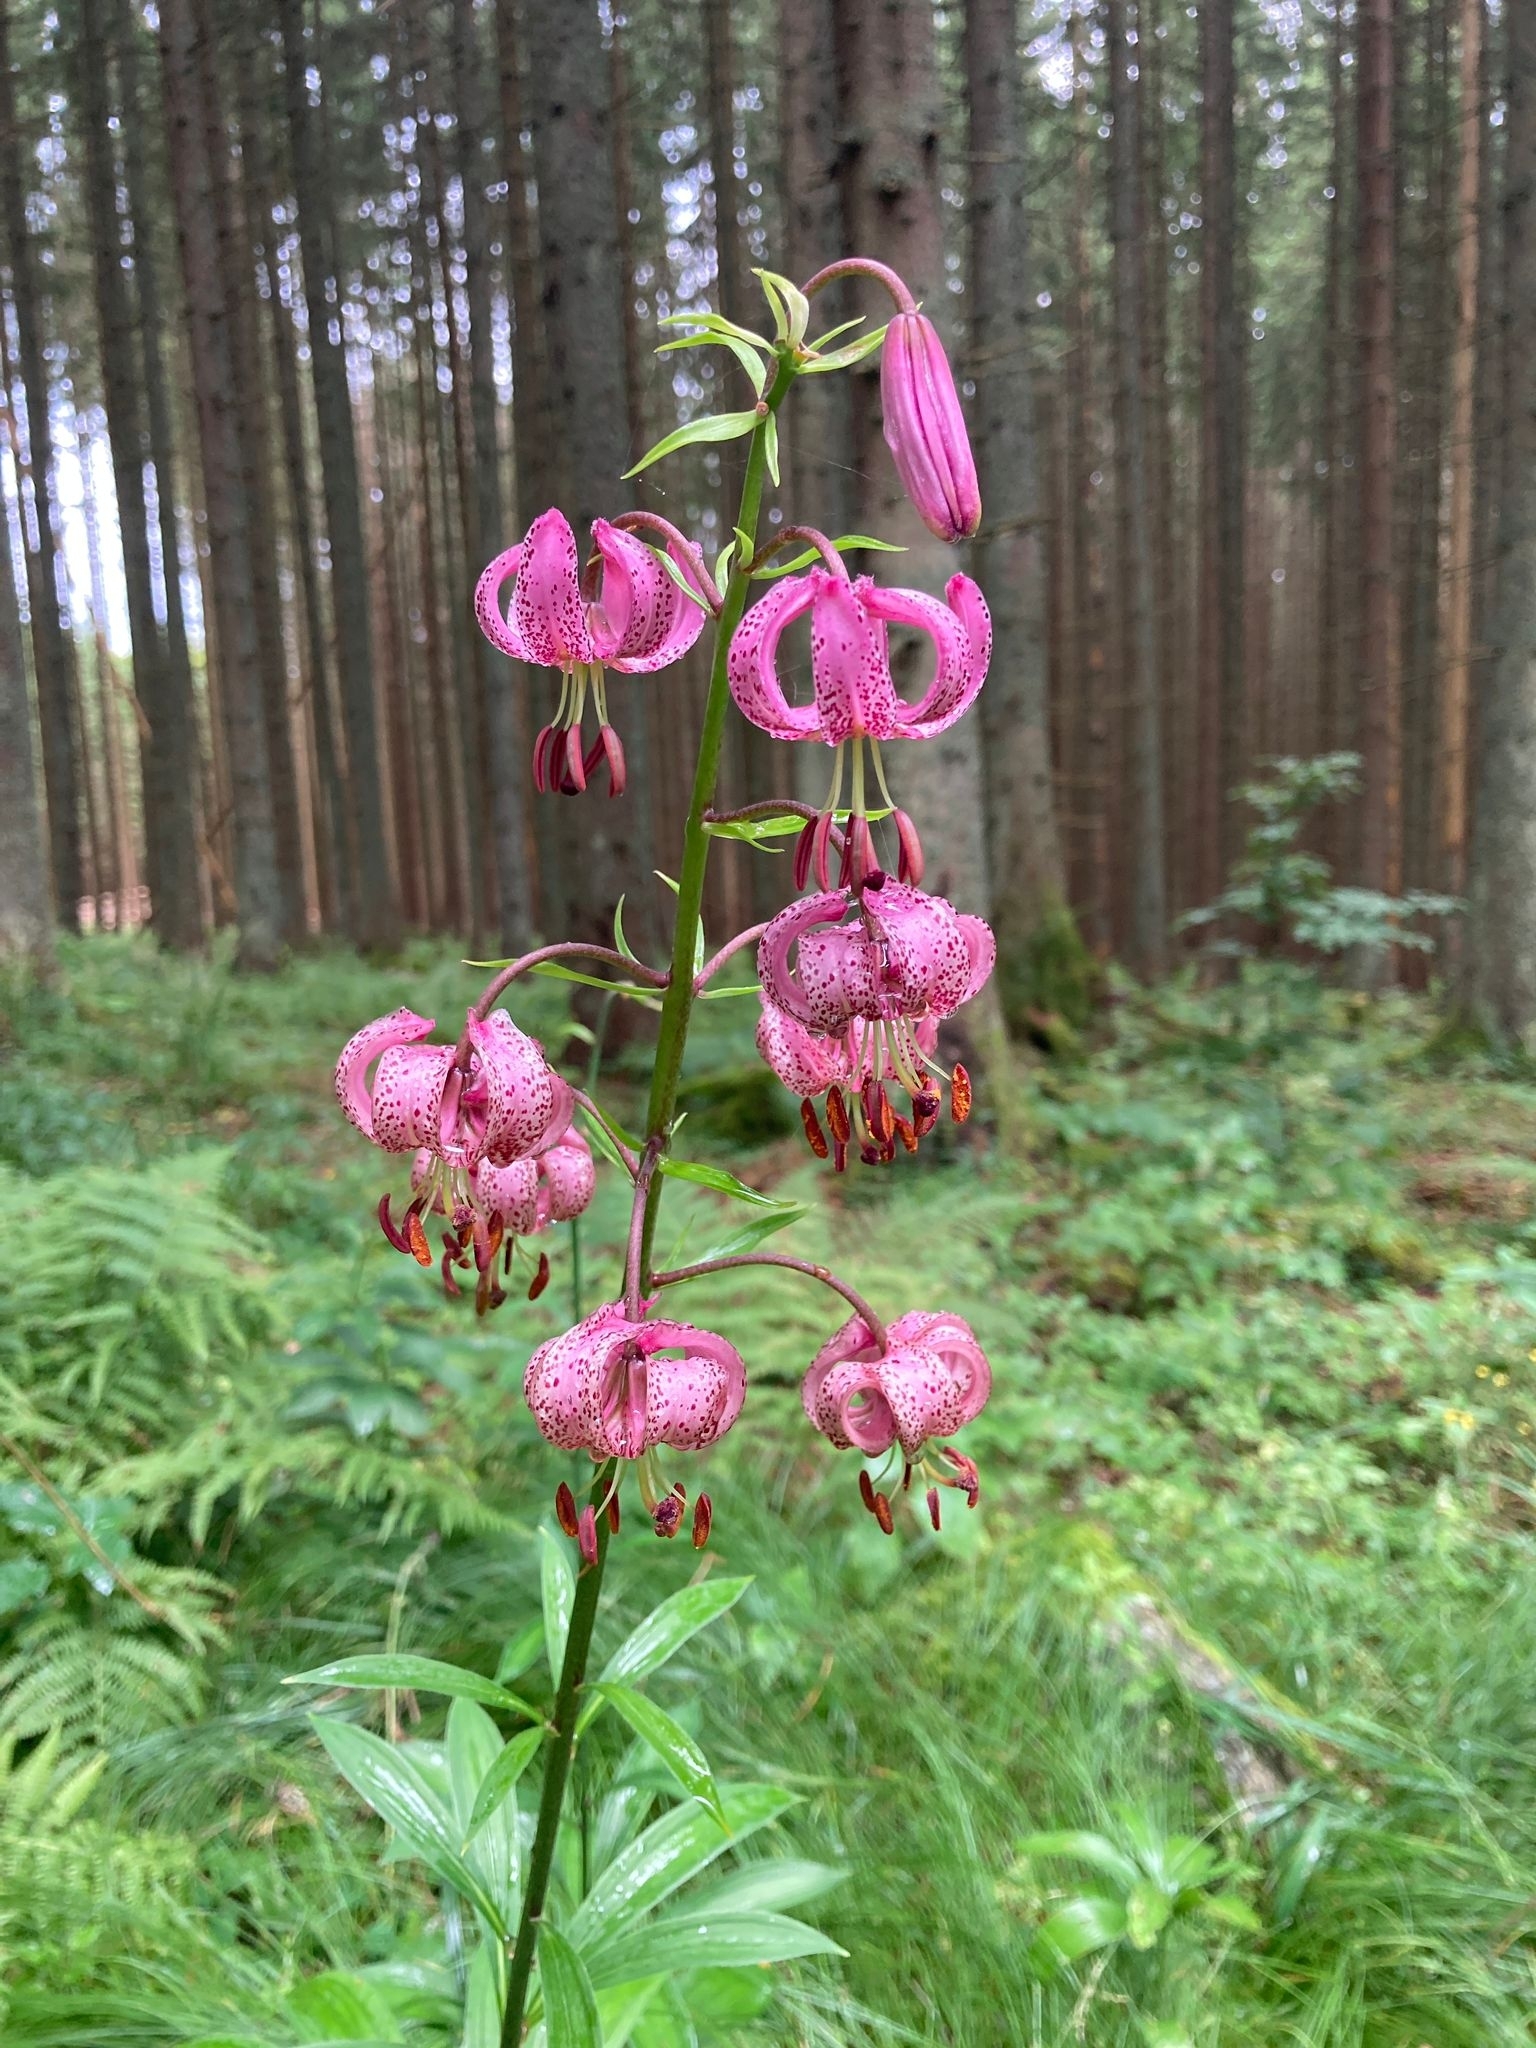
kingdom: Plantae
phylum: Tracheophyta
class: Liliopsida
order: Liliales
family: Liliaceae
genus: Lilium
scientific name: Lilium martagon
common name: Martagon lily
